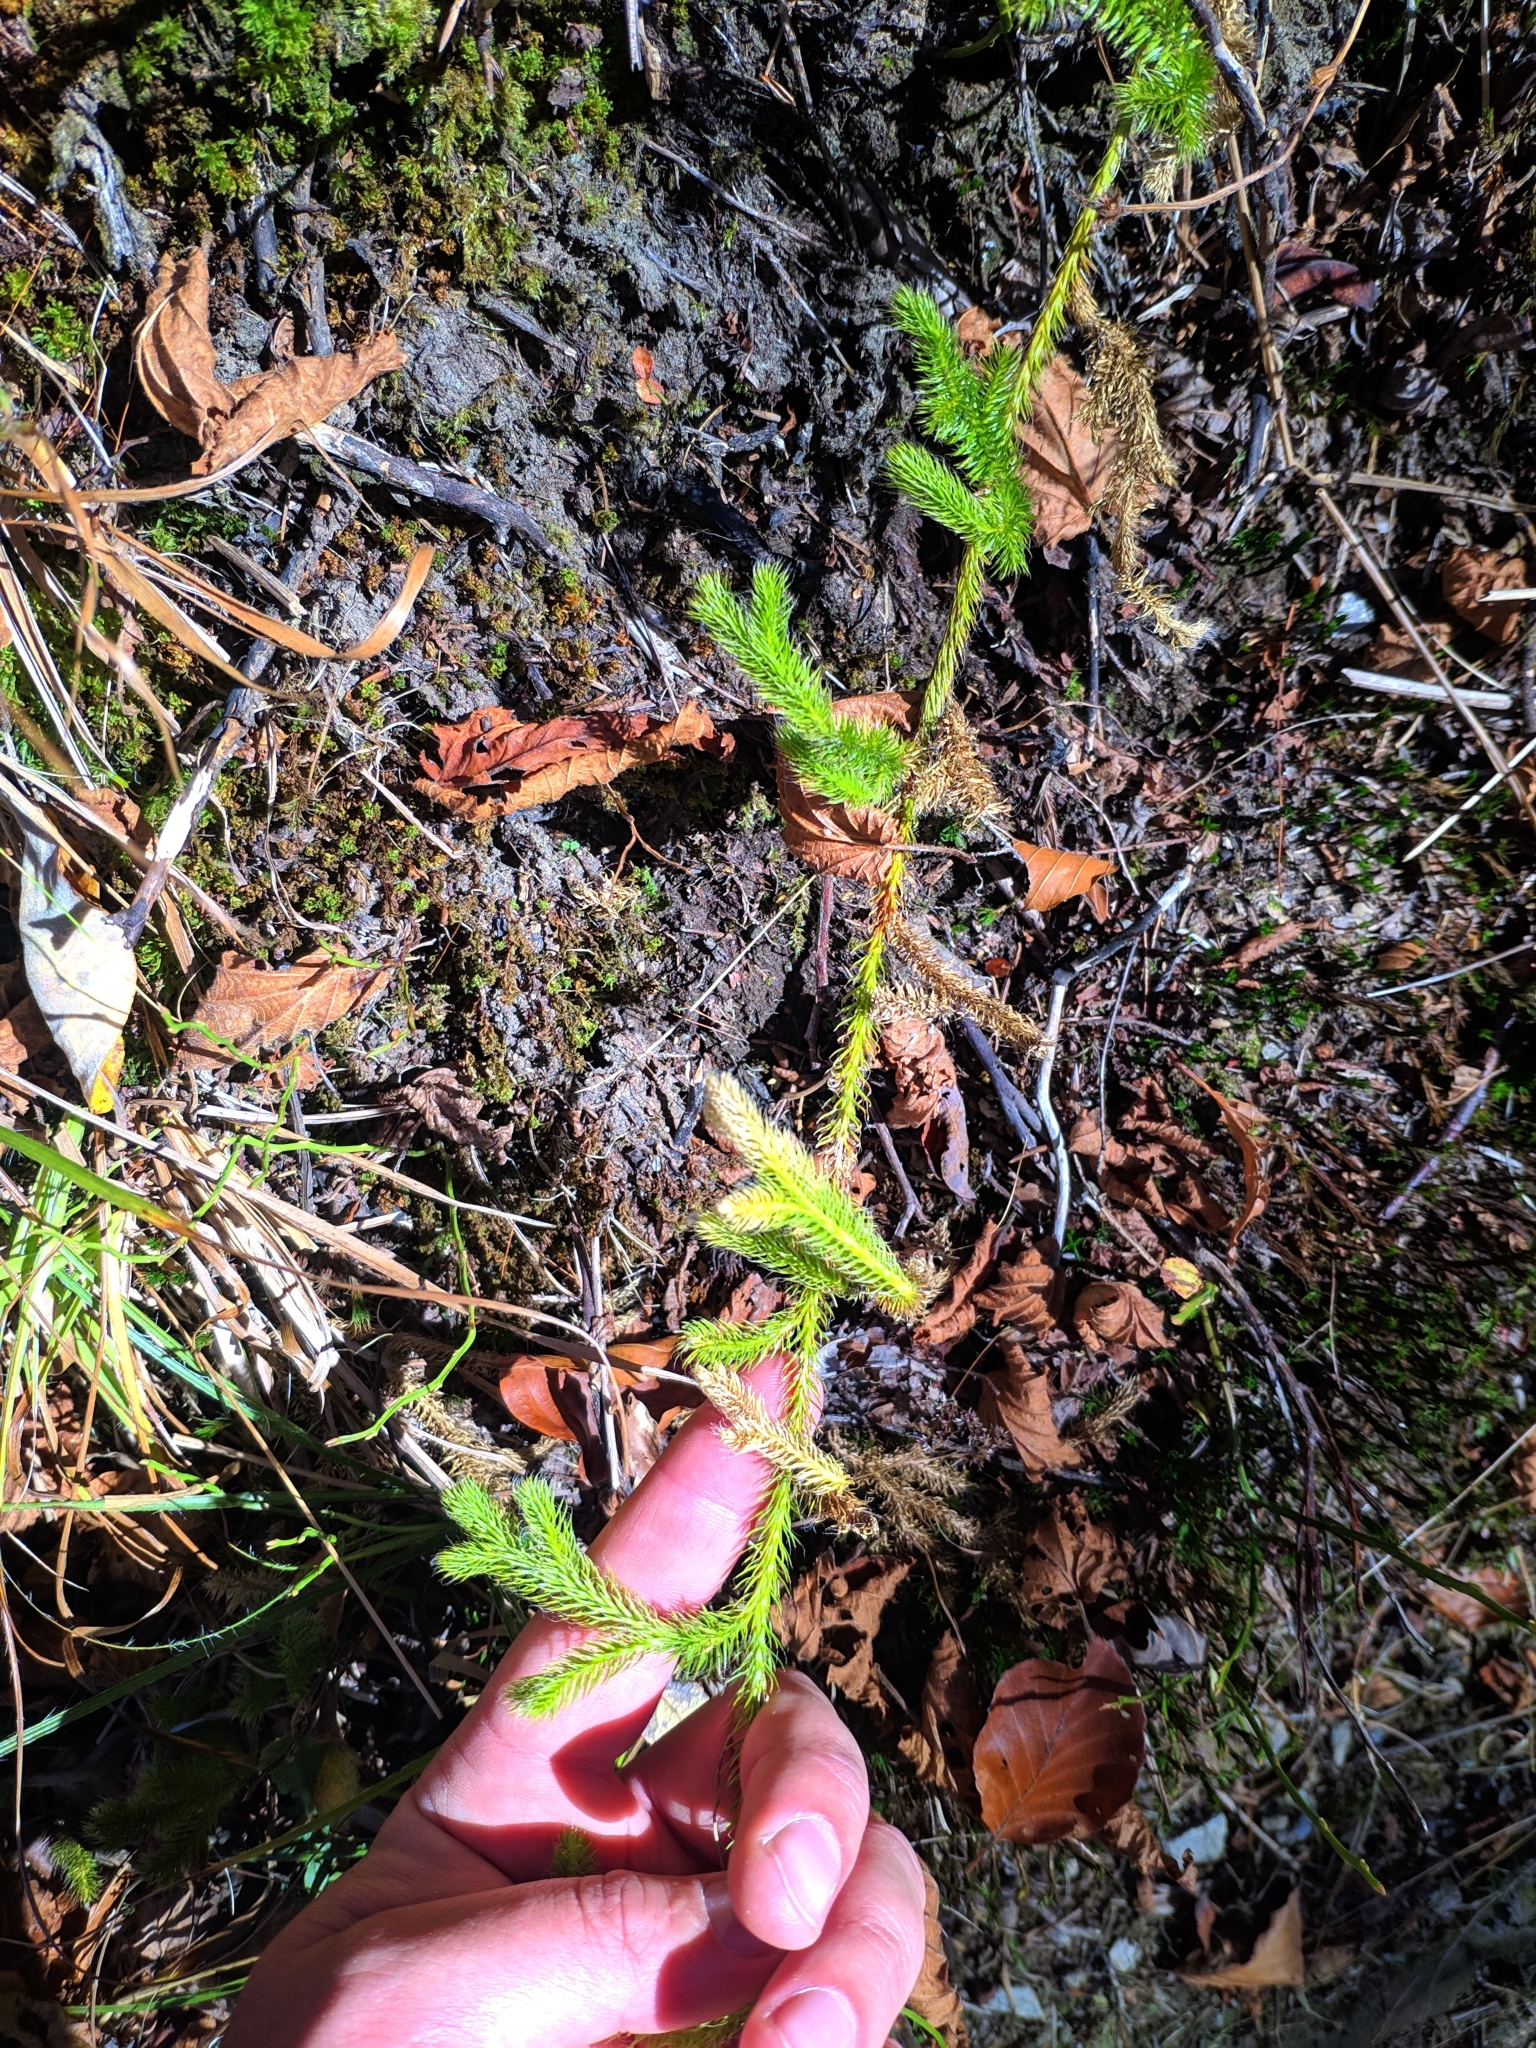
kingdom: Plantae
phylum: Tracheophyta
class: Lycopodiopsida
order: Lycopodiales
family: Lycopodiaceae
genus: Lycopodium
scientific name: Lycopodium clavatum
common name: Stag's-horn clubmoss
